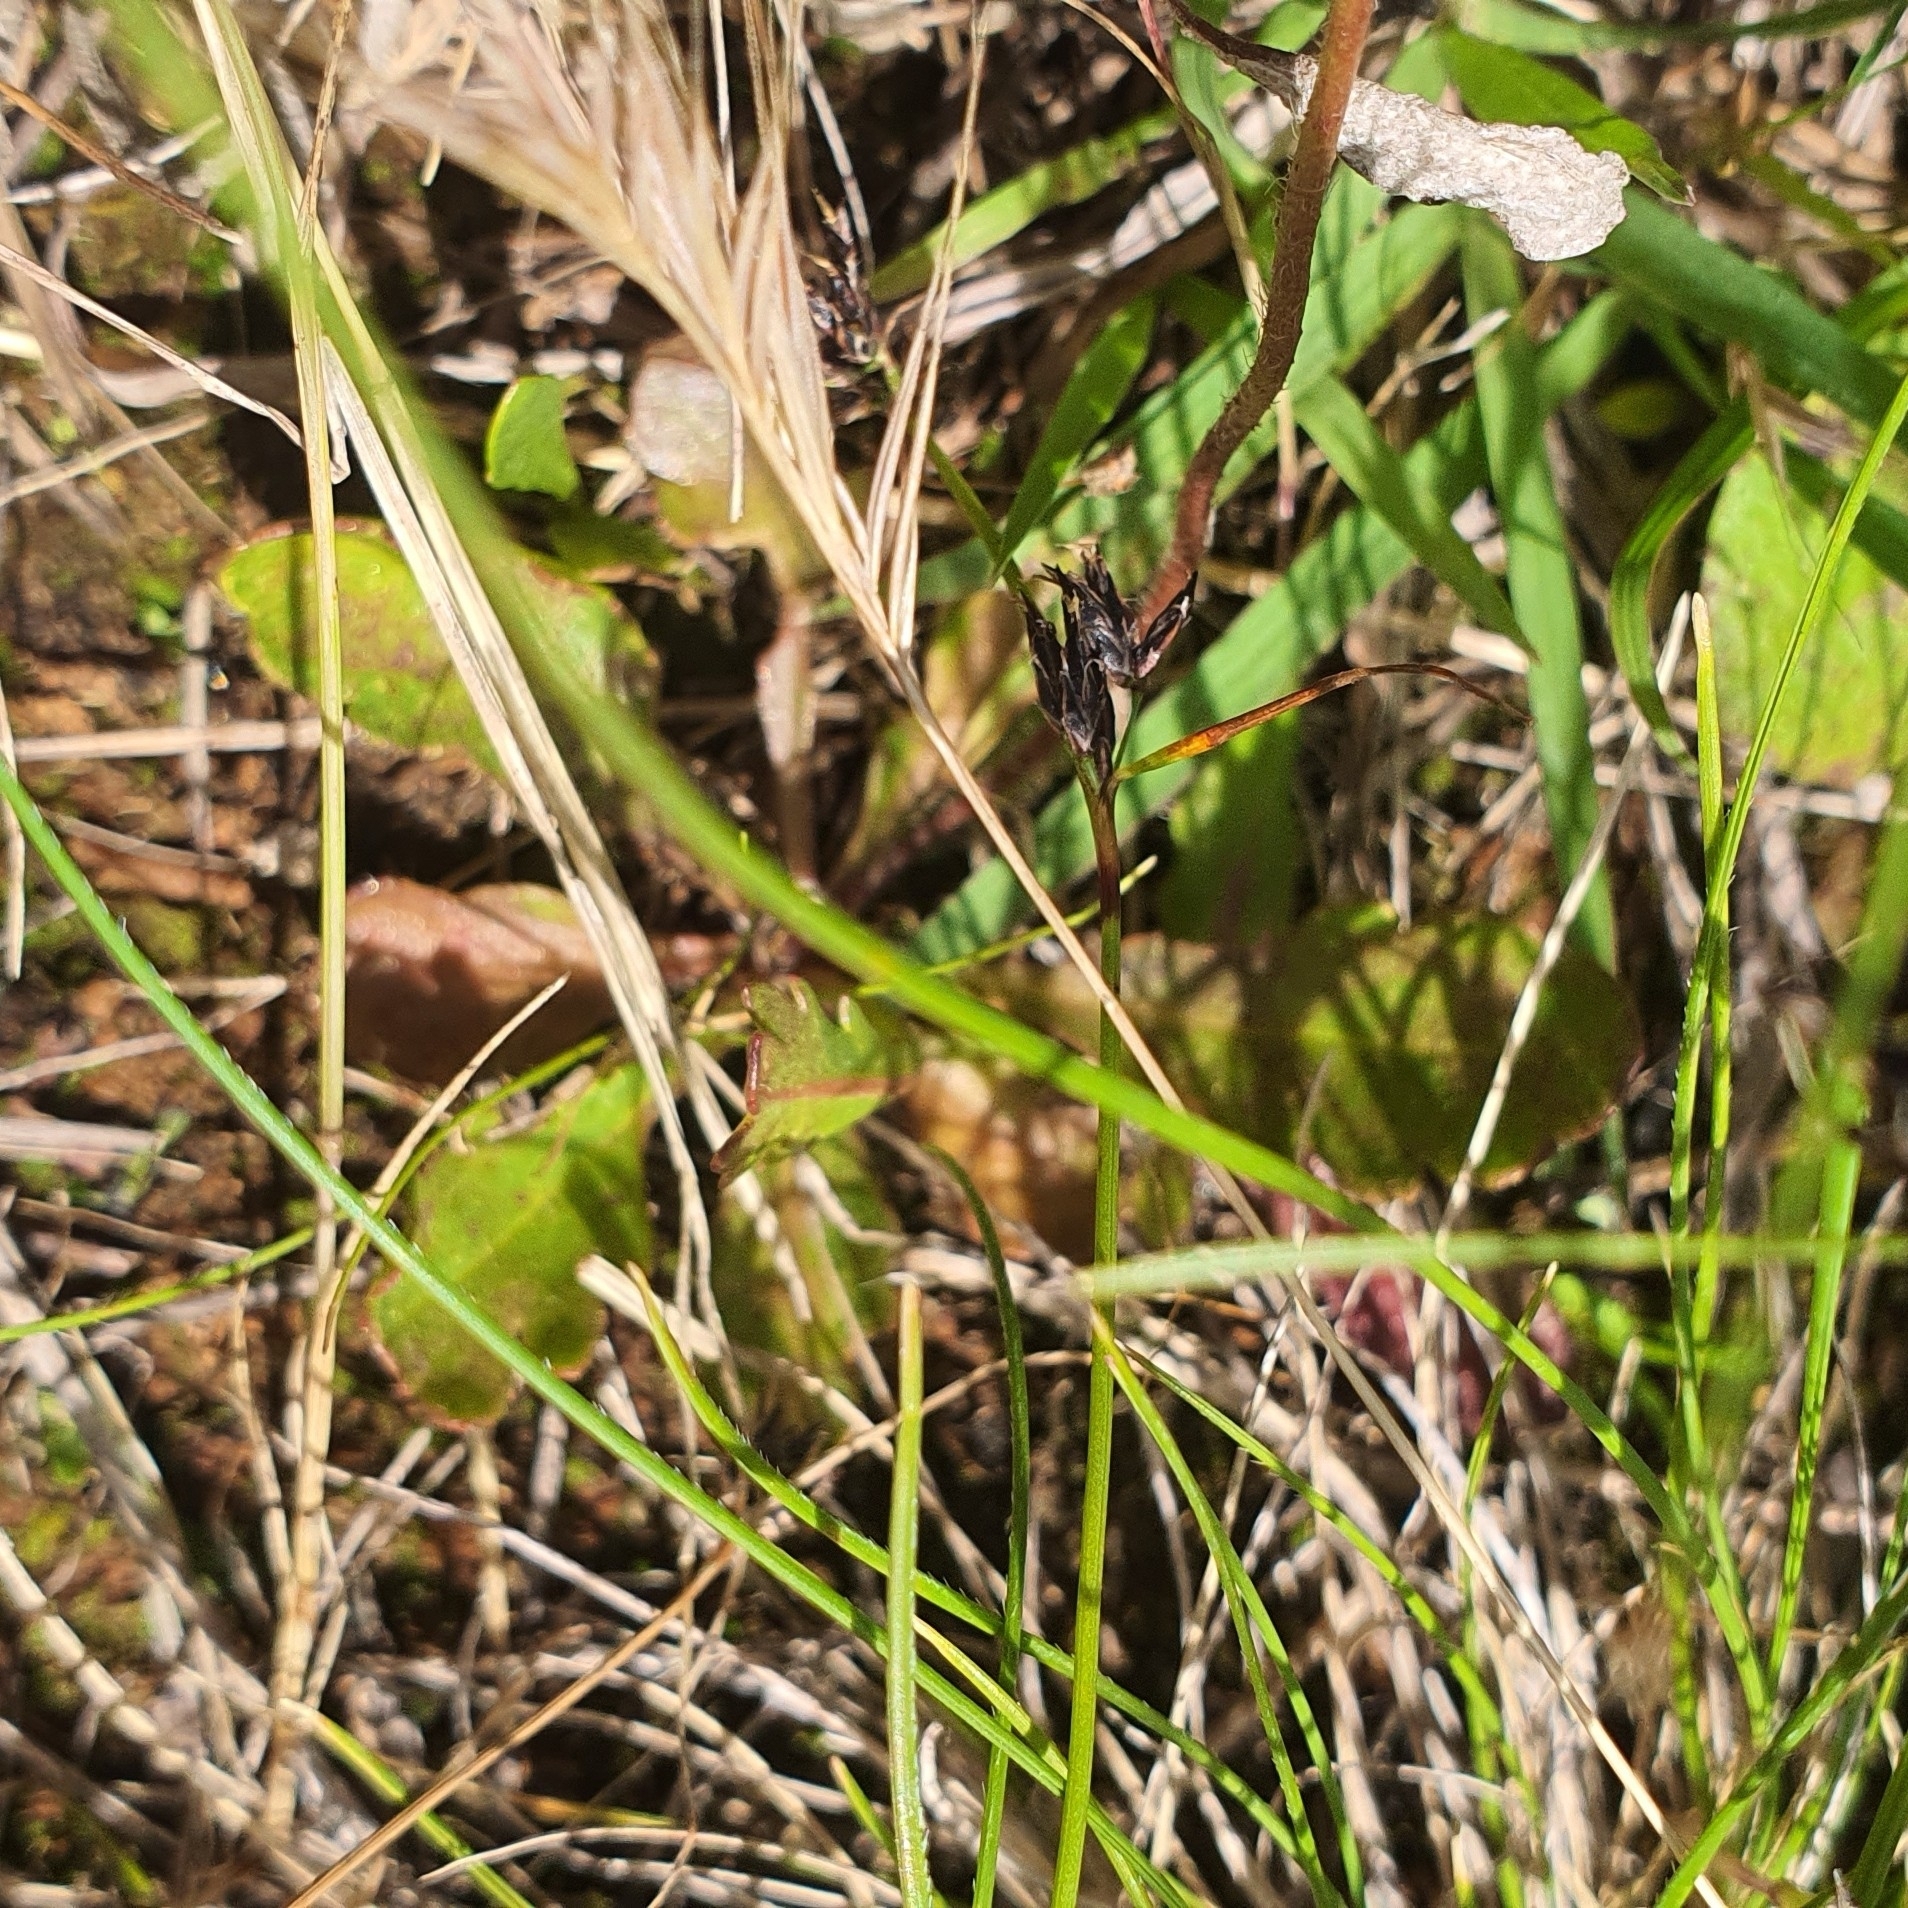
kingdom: Plantae
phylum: Tracheophyta
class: Magnoliopsida
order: Asterales
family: Goodeniaceae
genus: Goodenia
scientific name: Goodenia pinnatifida
